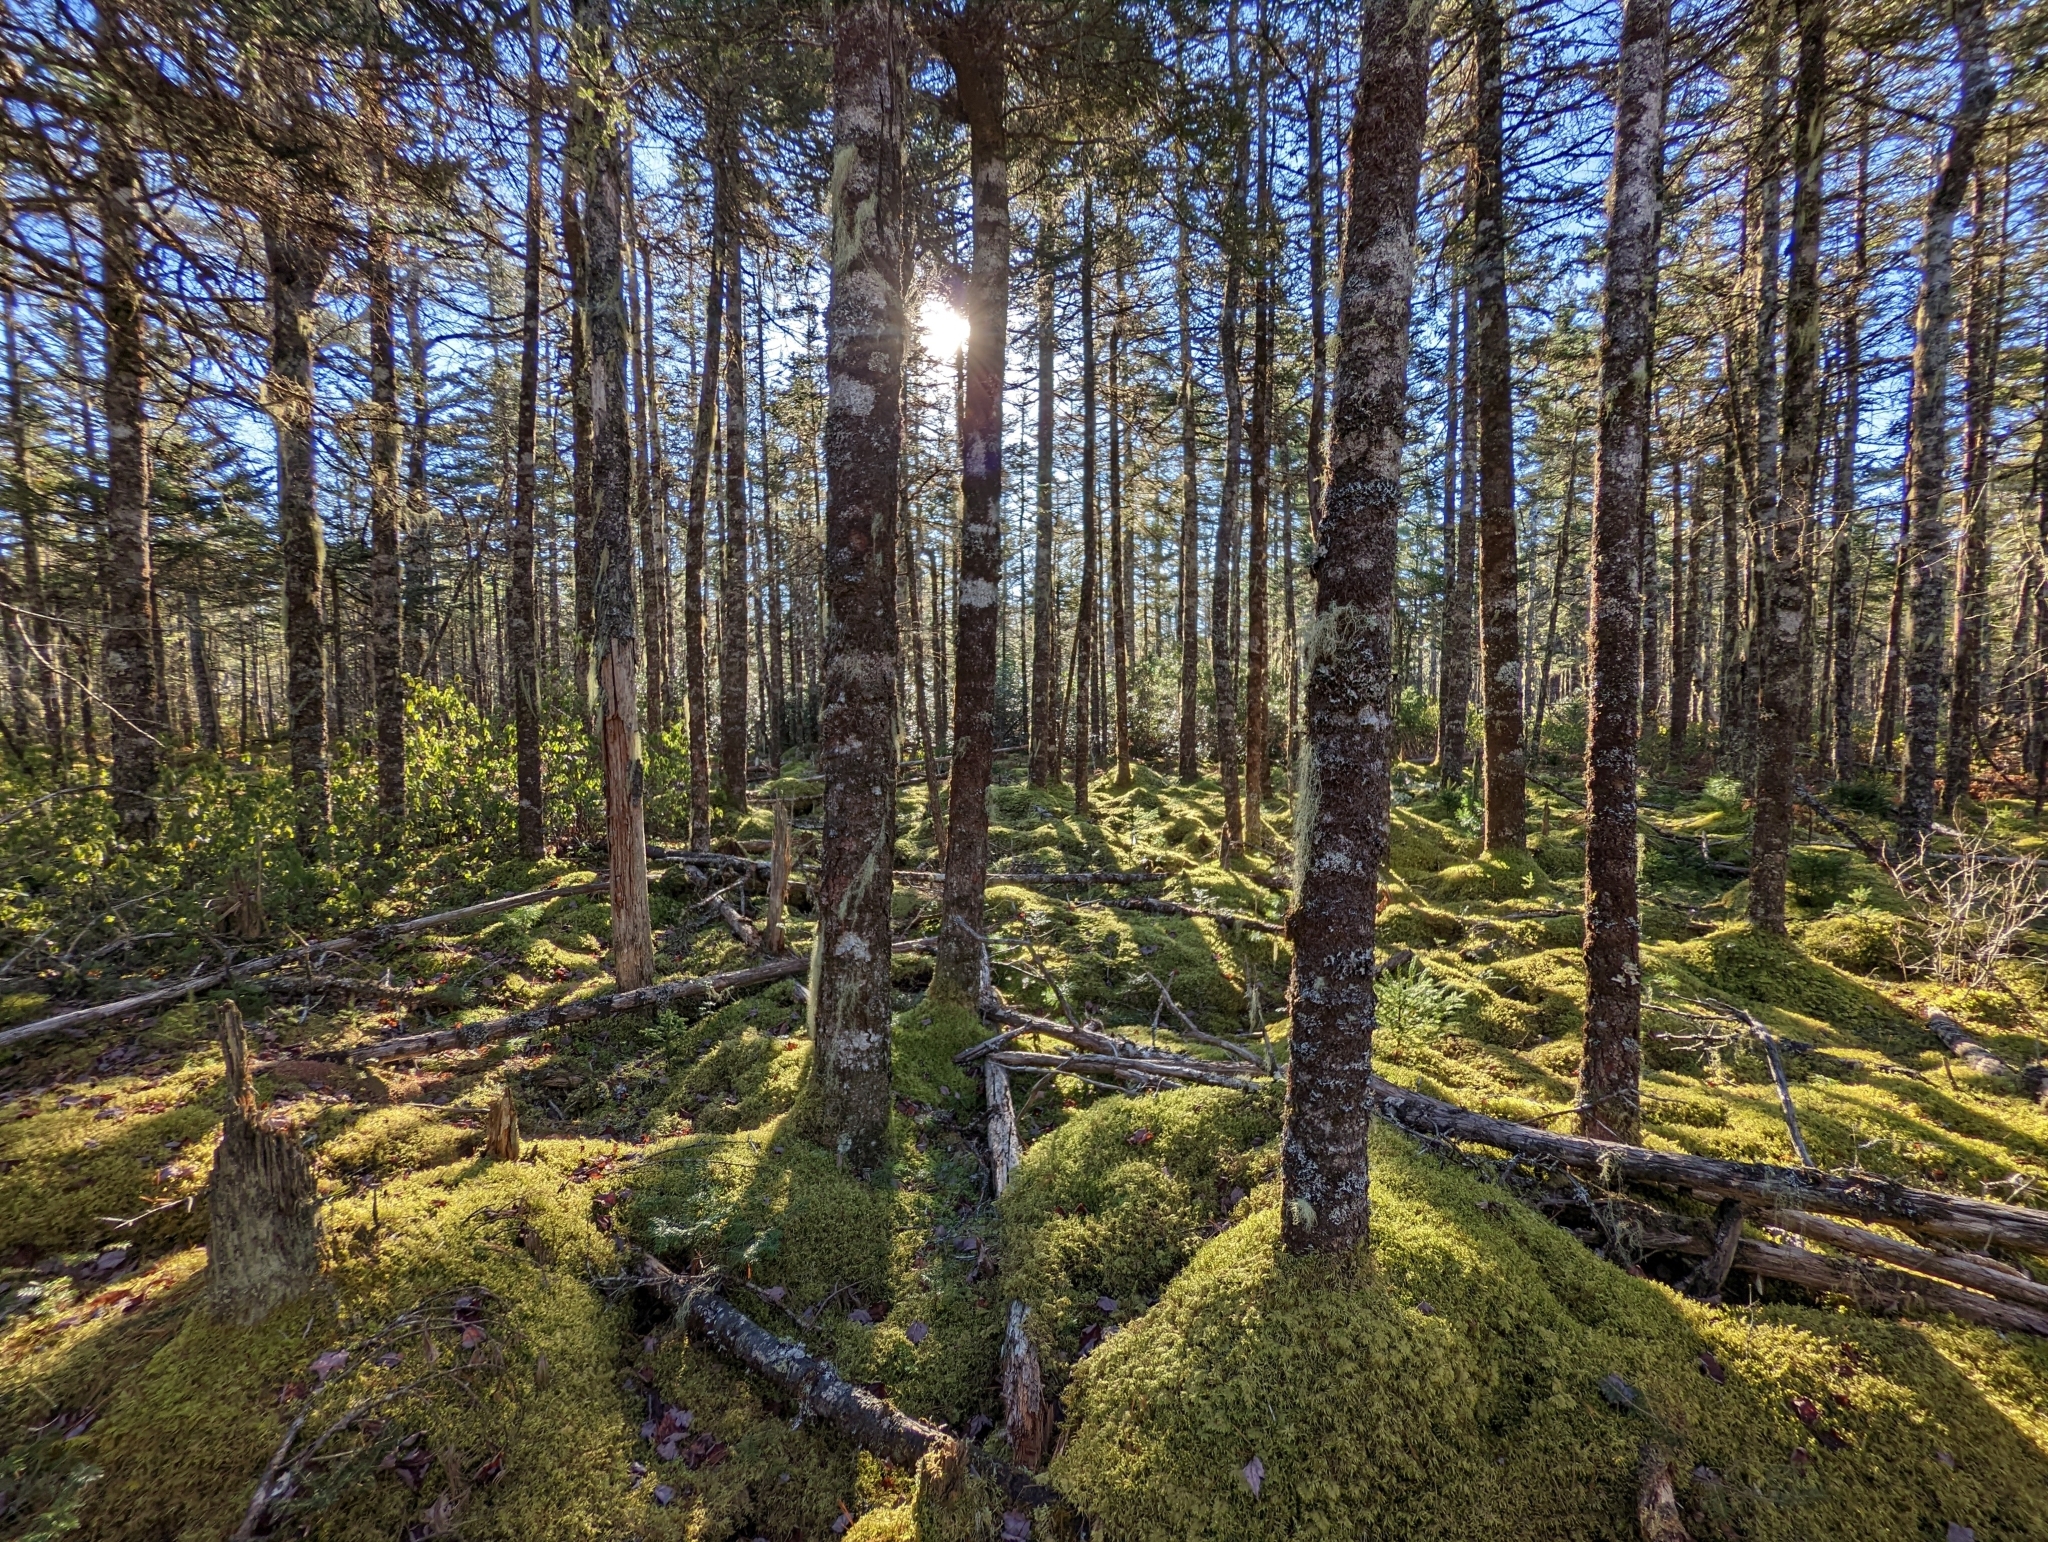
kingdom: Plantae
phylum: Tracheophyta
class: Pinopsida
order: Pinales
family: Pinaceae
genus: Abies
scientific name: Abies balsamea
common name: Balsam fir
